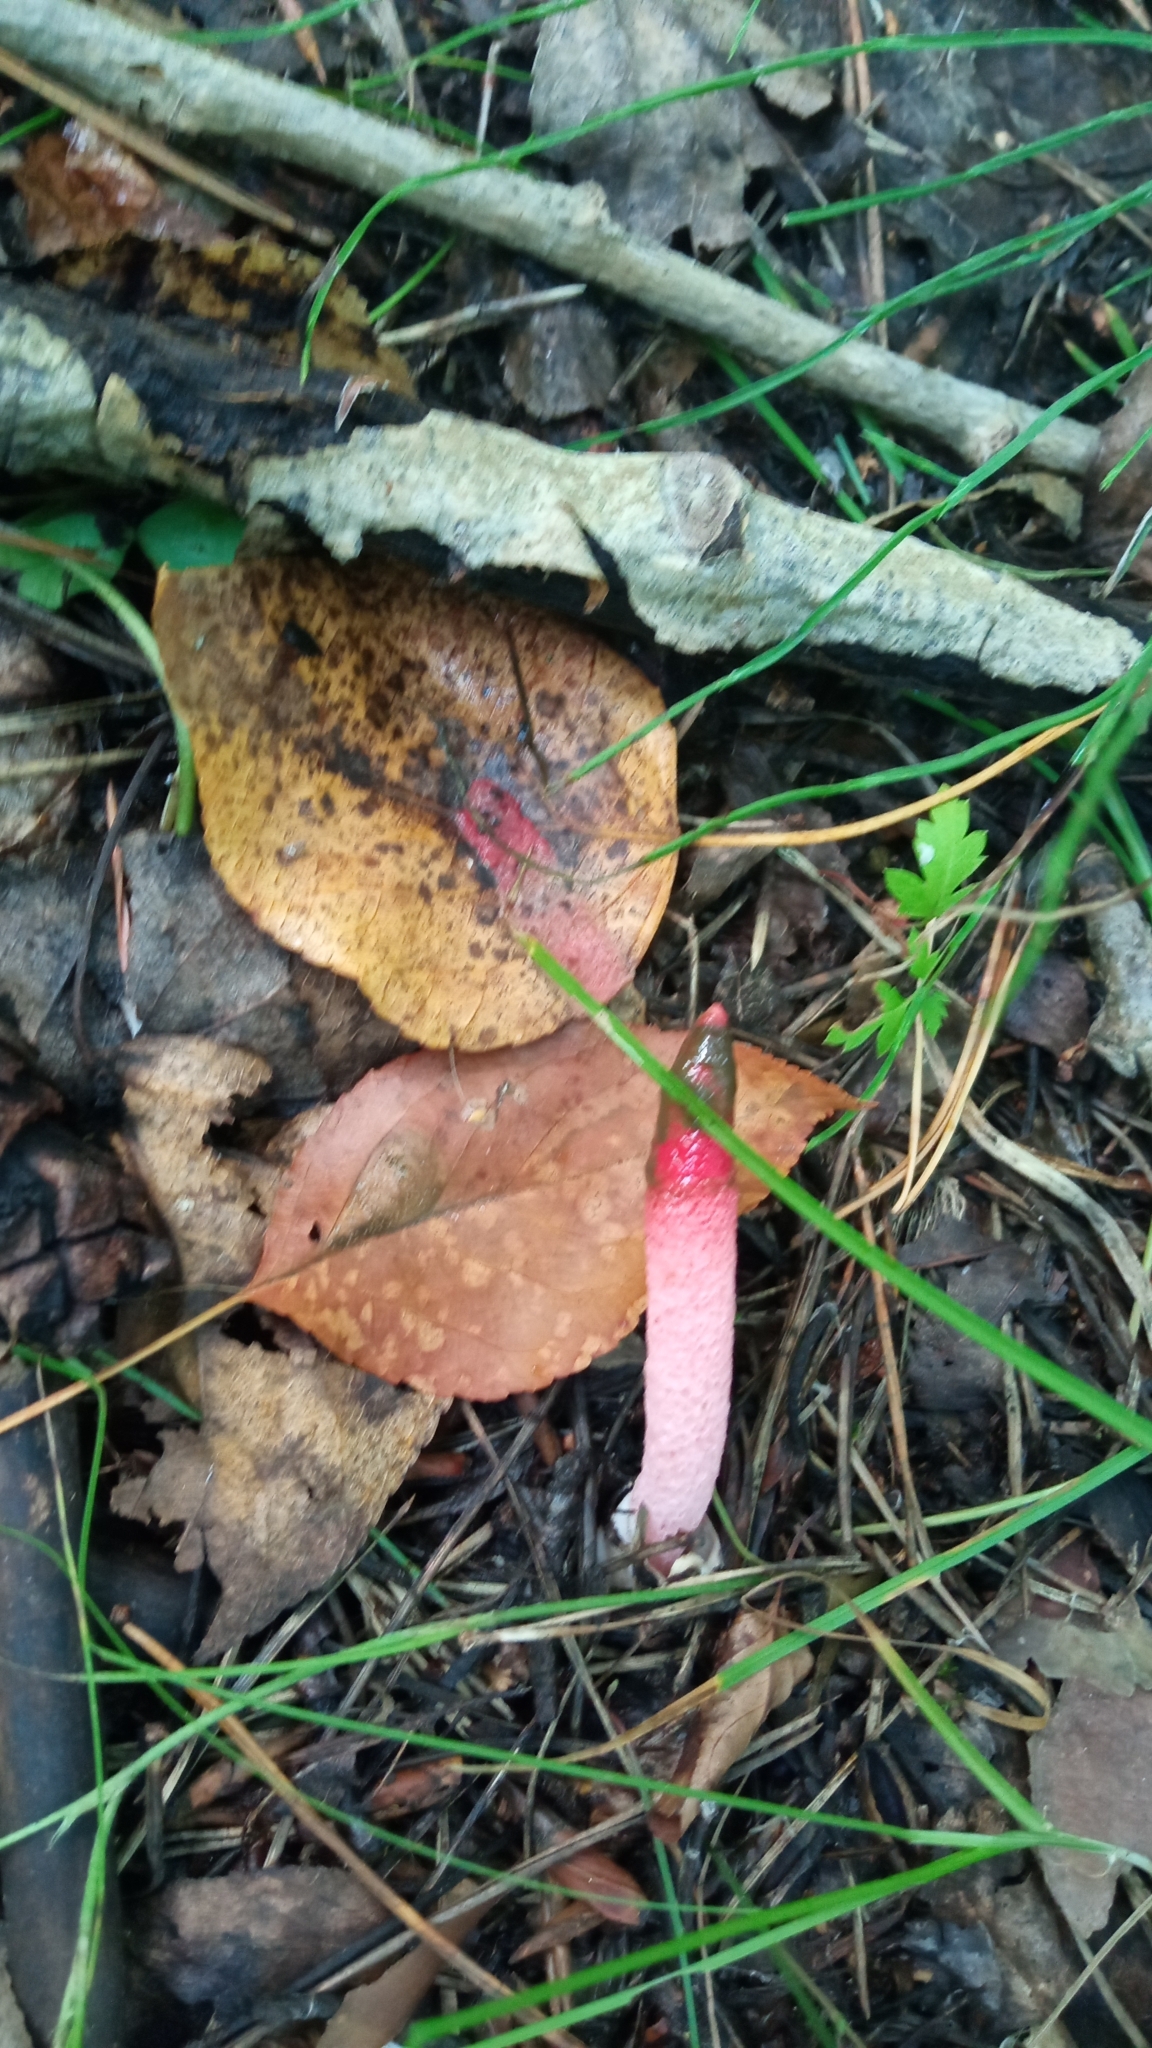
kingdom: Fungi
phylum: Basidiomycota
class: Agaricomycetes
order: Phallales
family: Phallaceae
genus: Mutinus
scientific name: Mutinus ravenelii
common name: Red stinkhorn
